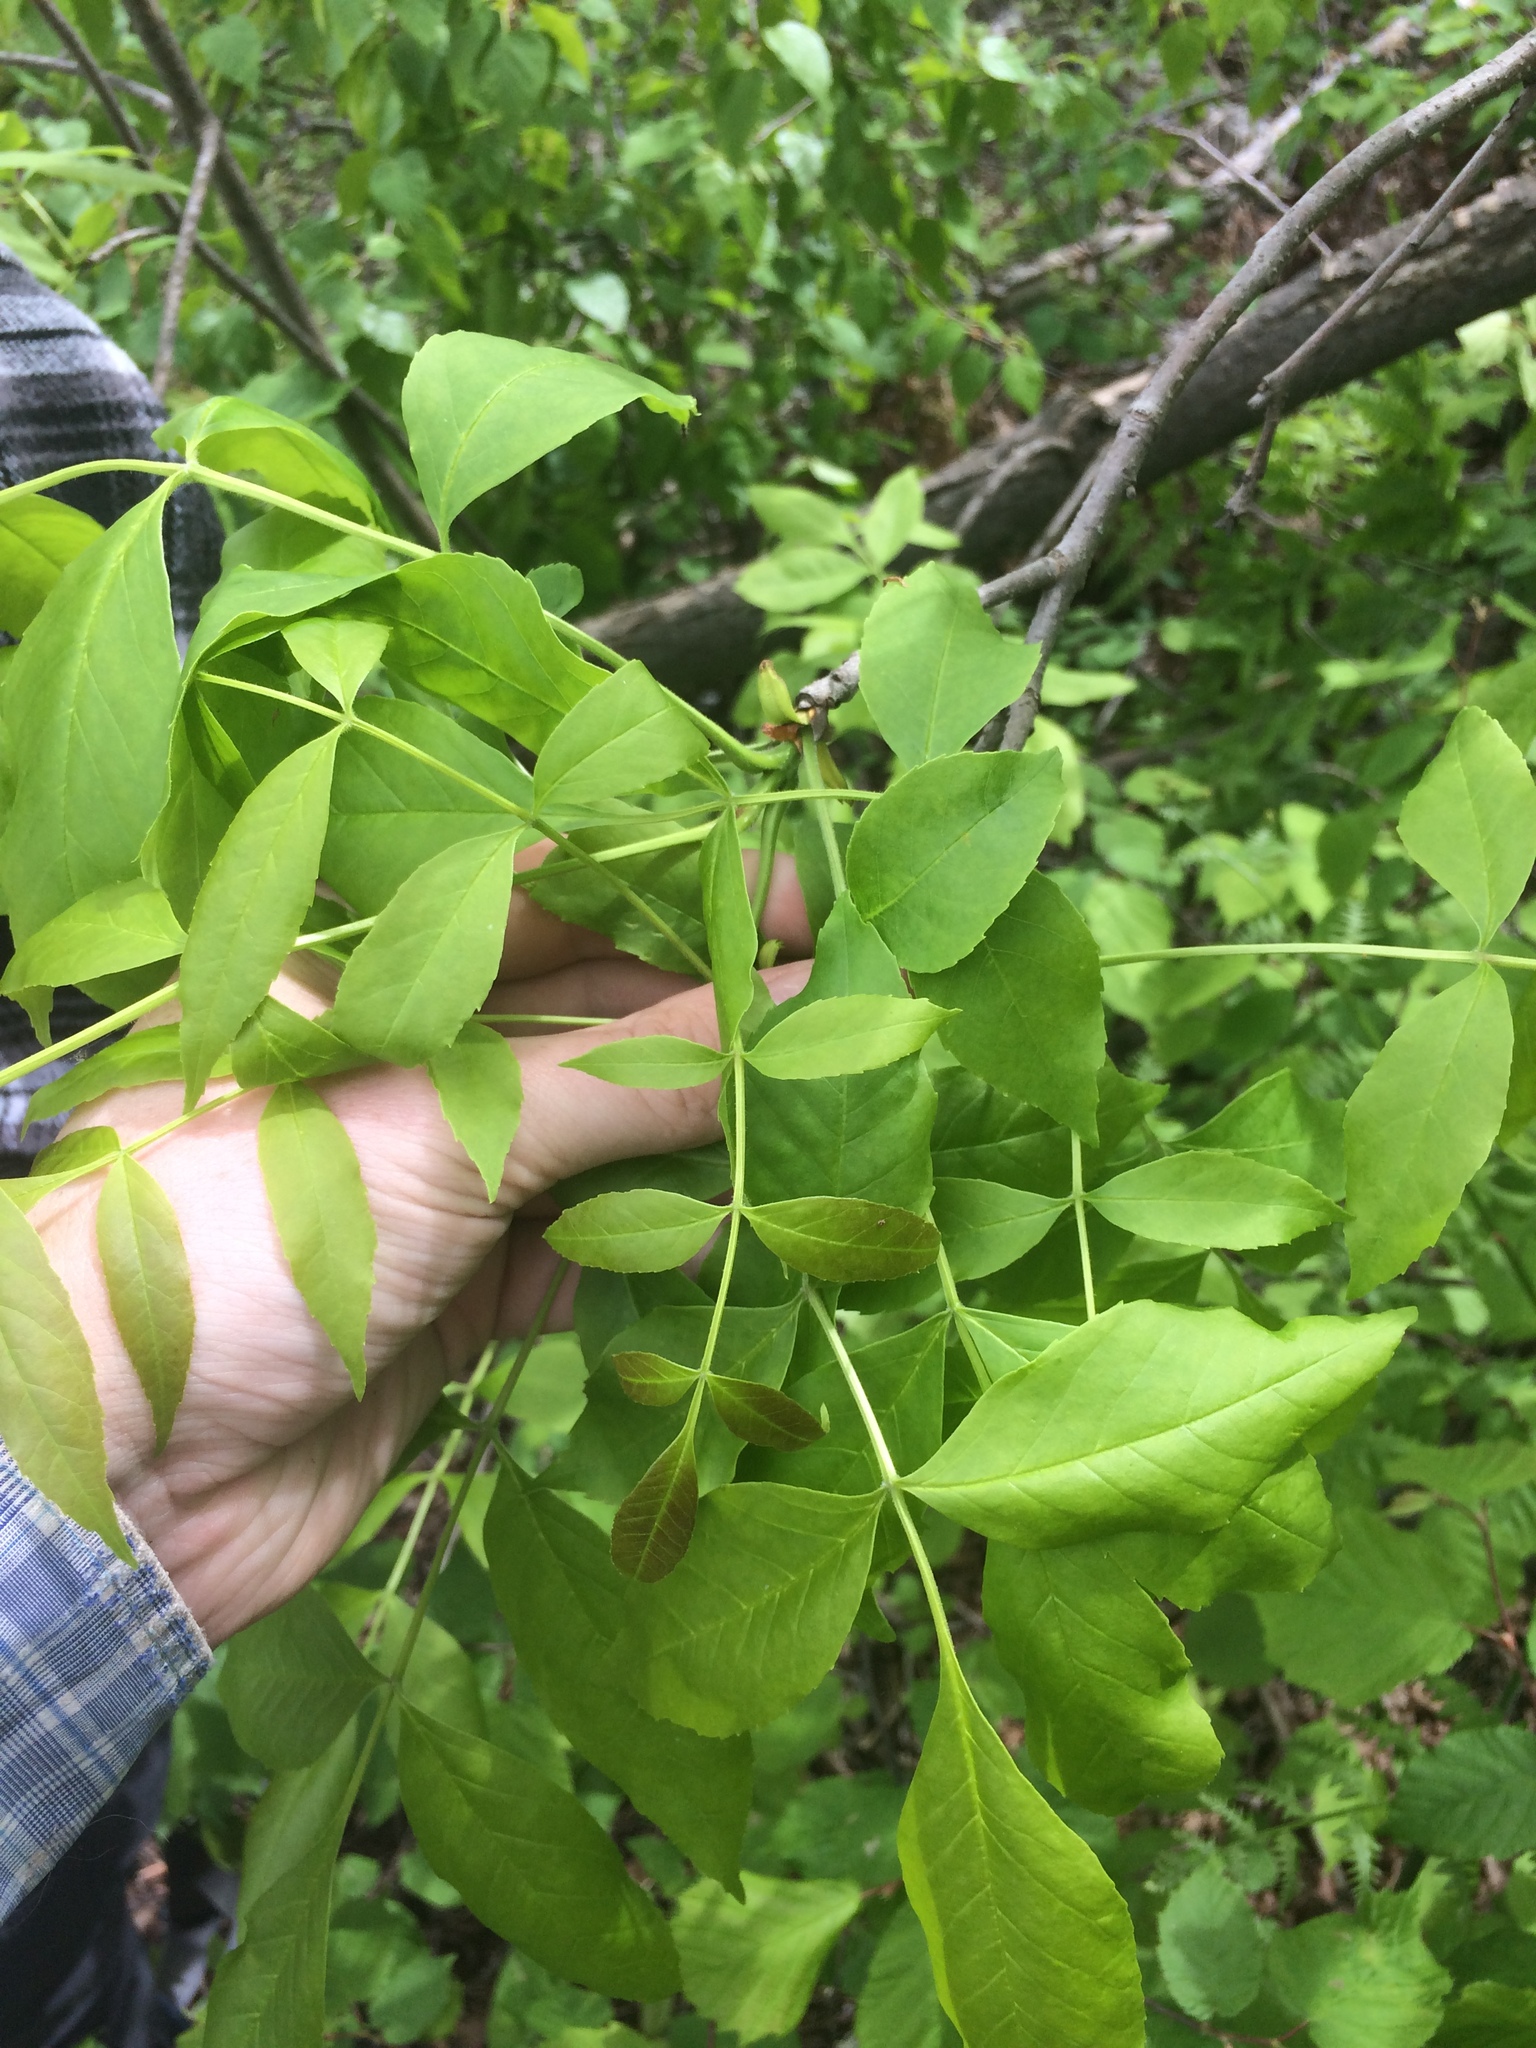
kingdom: Plantae
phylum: Tracheophyta
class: Magnoliopsida
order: Lamiales
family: Oleaceae
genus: Fraxinus
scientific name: Fraxinus pennsylvanica
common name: Green ash
